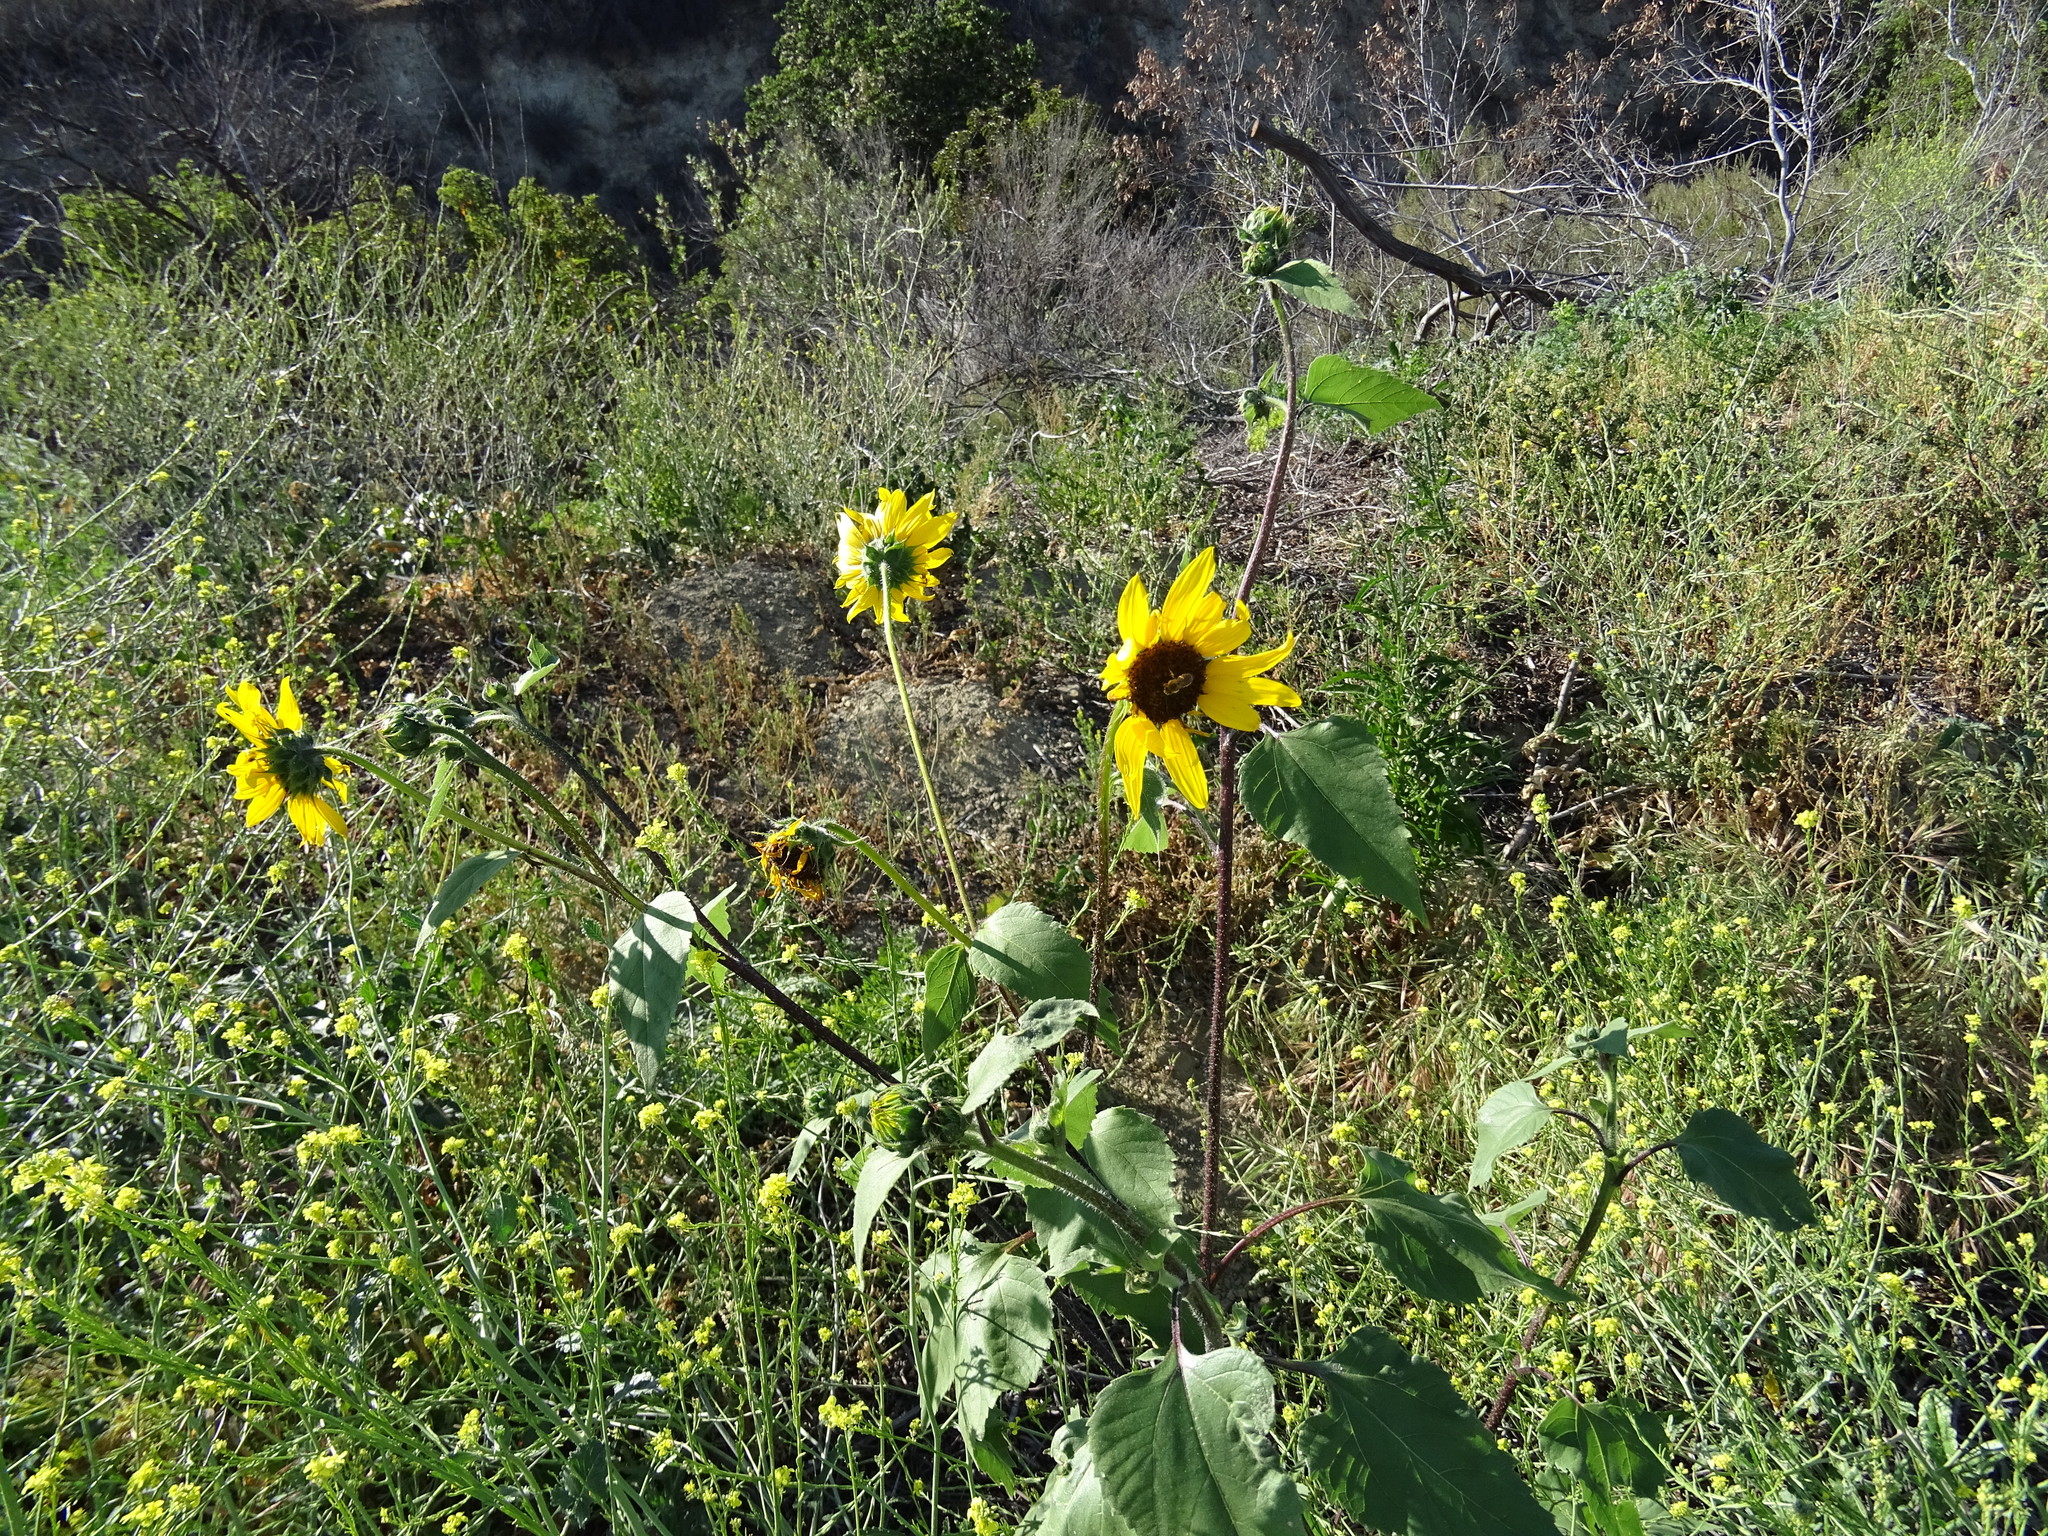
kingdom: Plantae
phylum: Tracheophyta
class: Magnoliopsida
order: Asterales
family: Asteraceae
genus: Helianthus
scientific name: Helianthus annuus
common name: Sunflower
